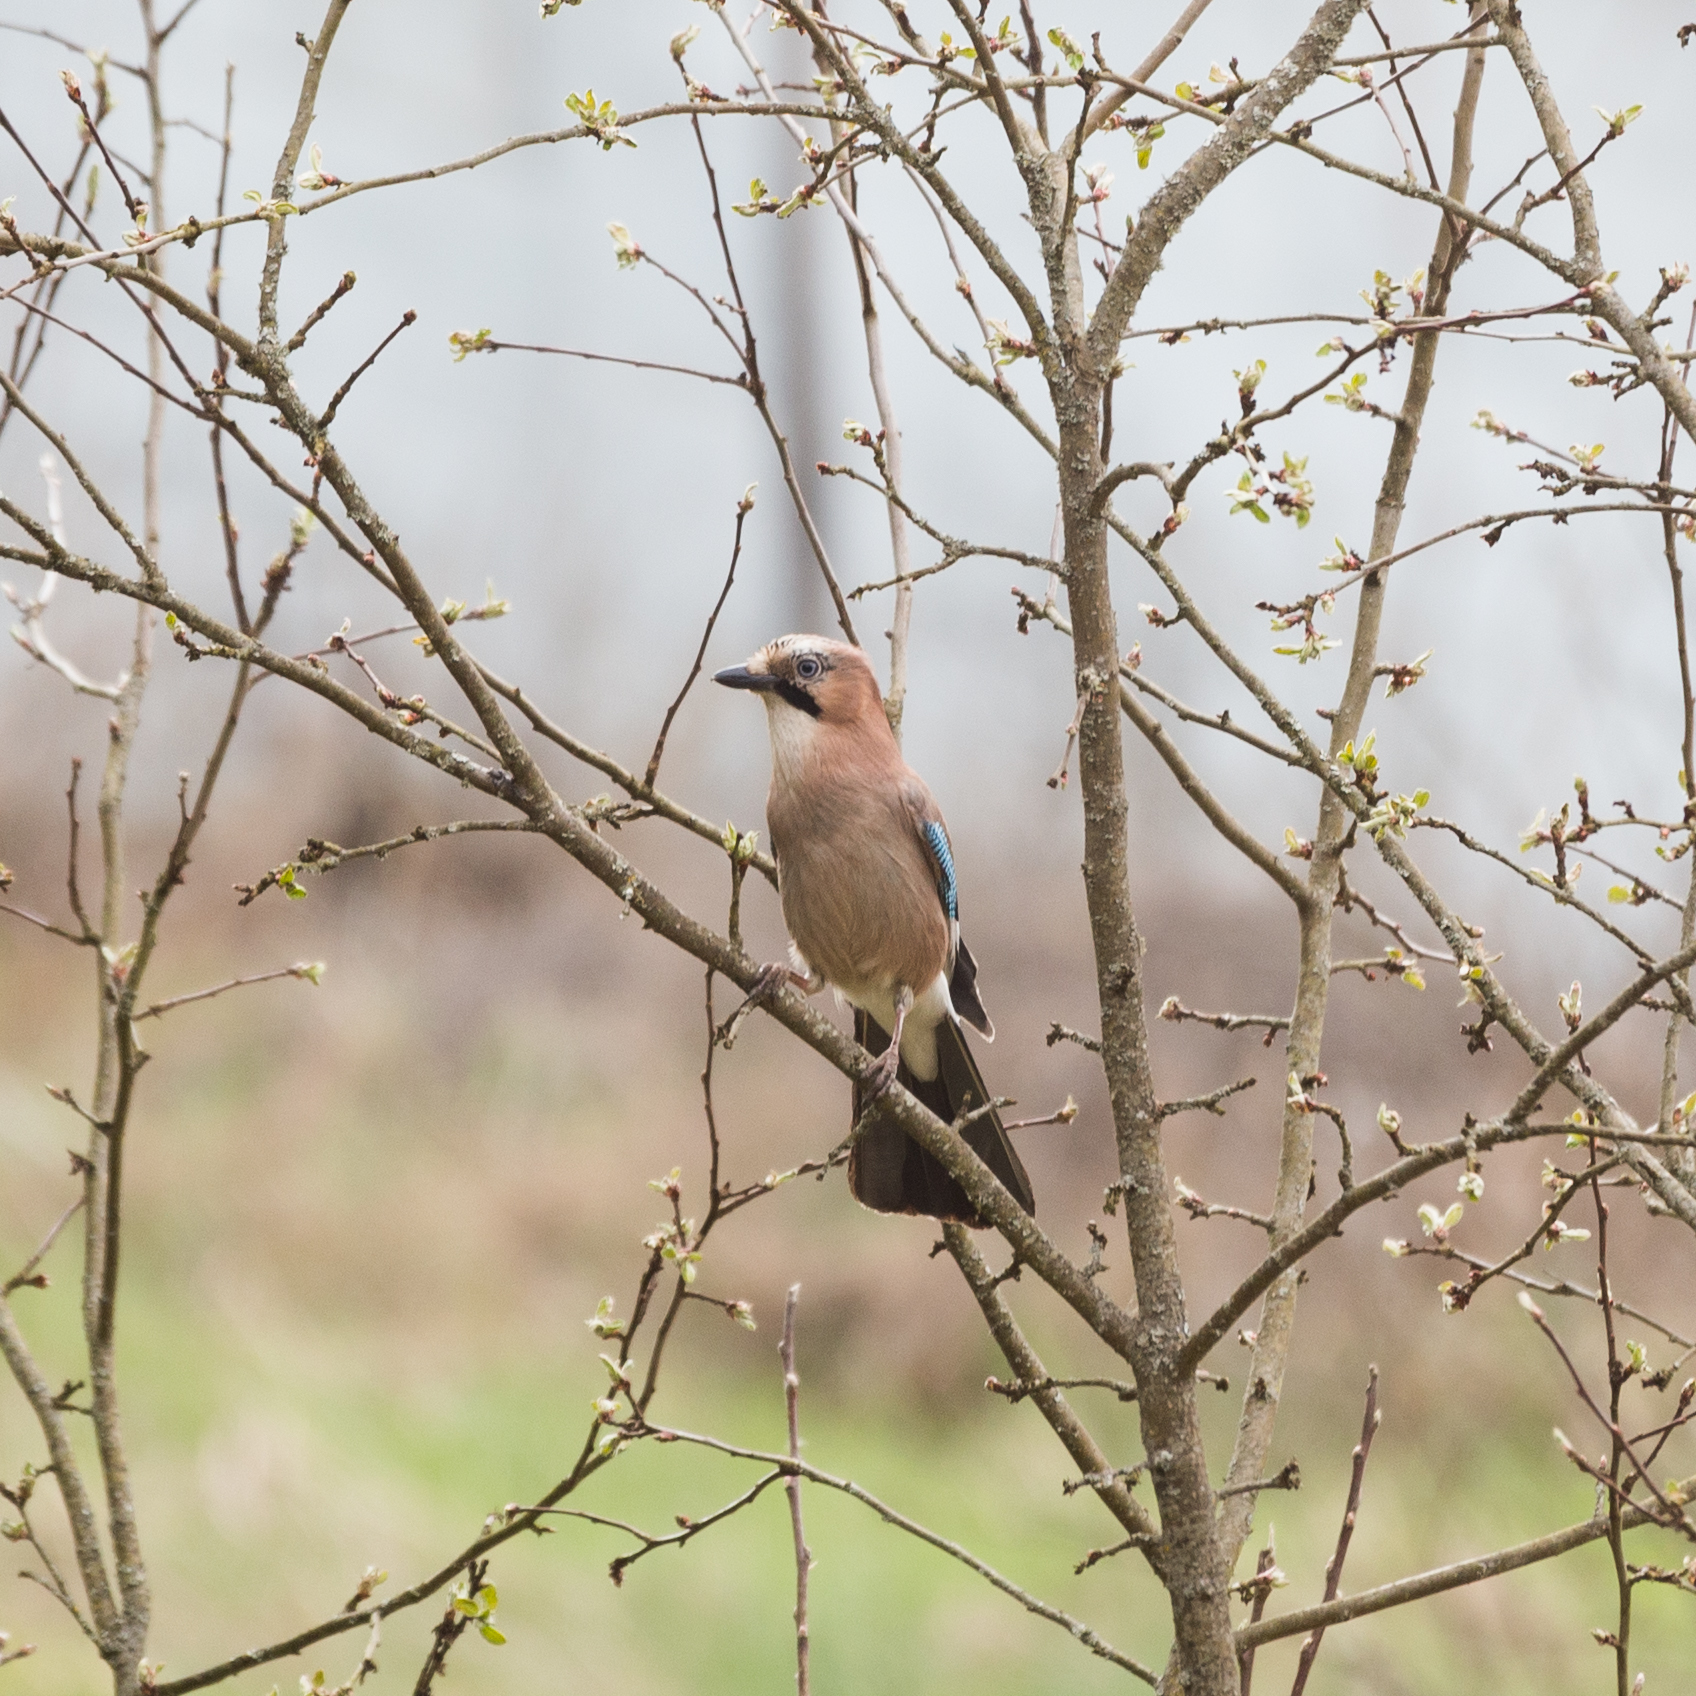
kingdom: Animalia
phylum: Chordata
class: Aves
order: Passeriformes
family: Corvidae
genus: Garrulus
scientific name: Garrulus glandarius
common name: Eurasian jay
